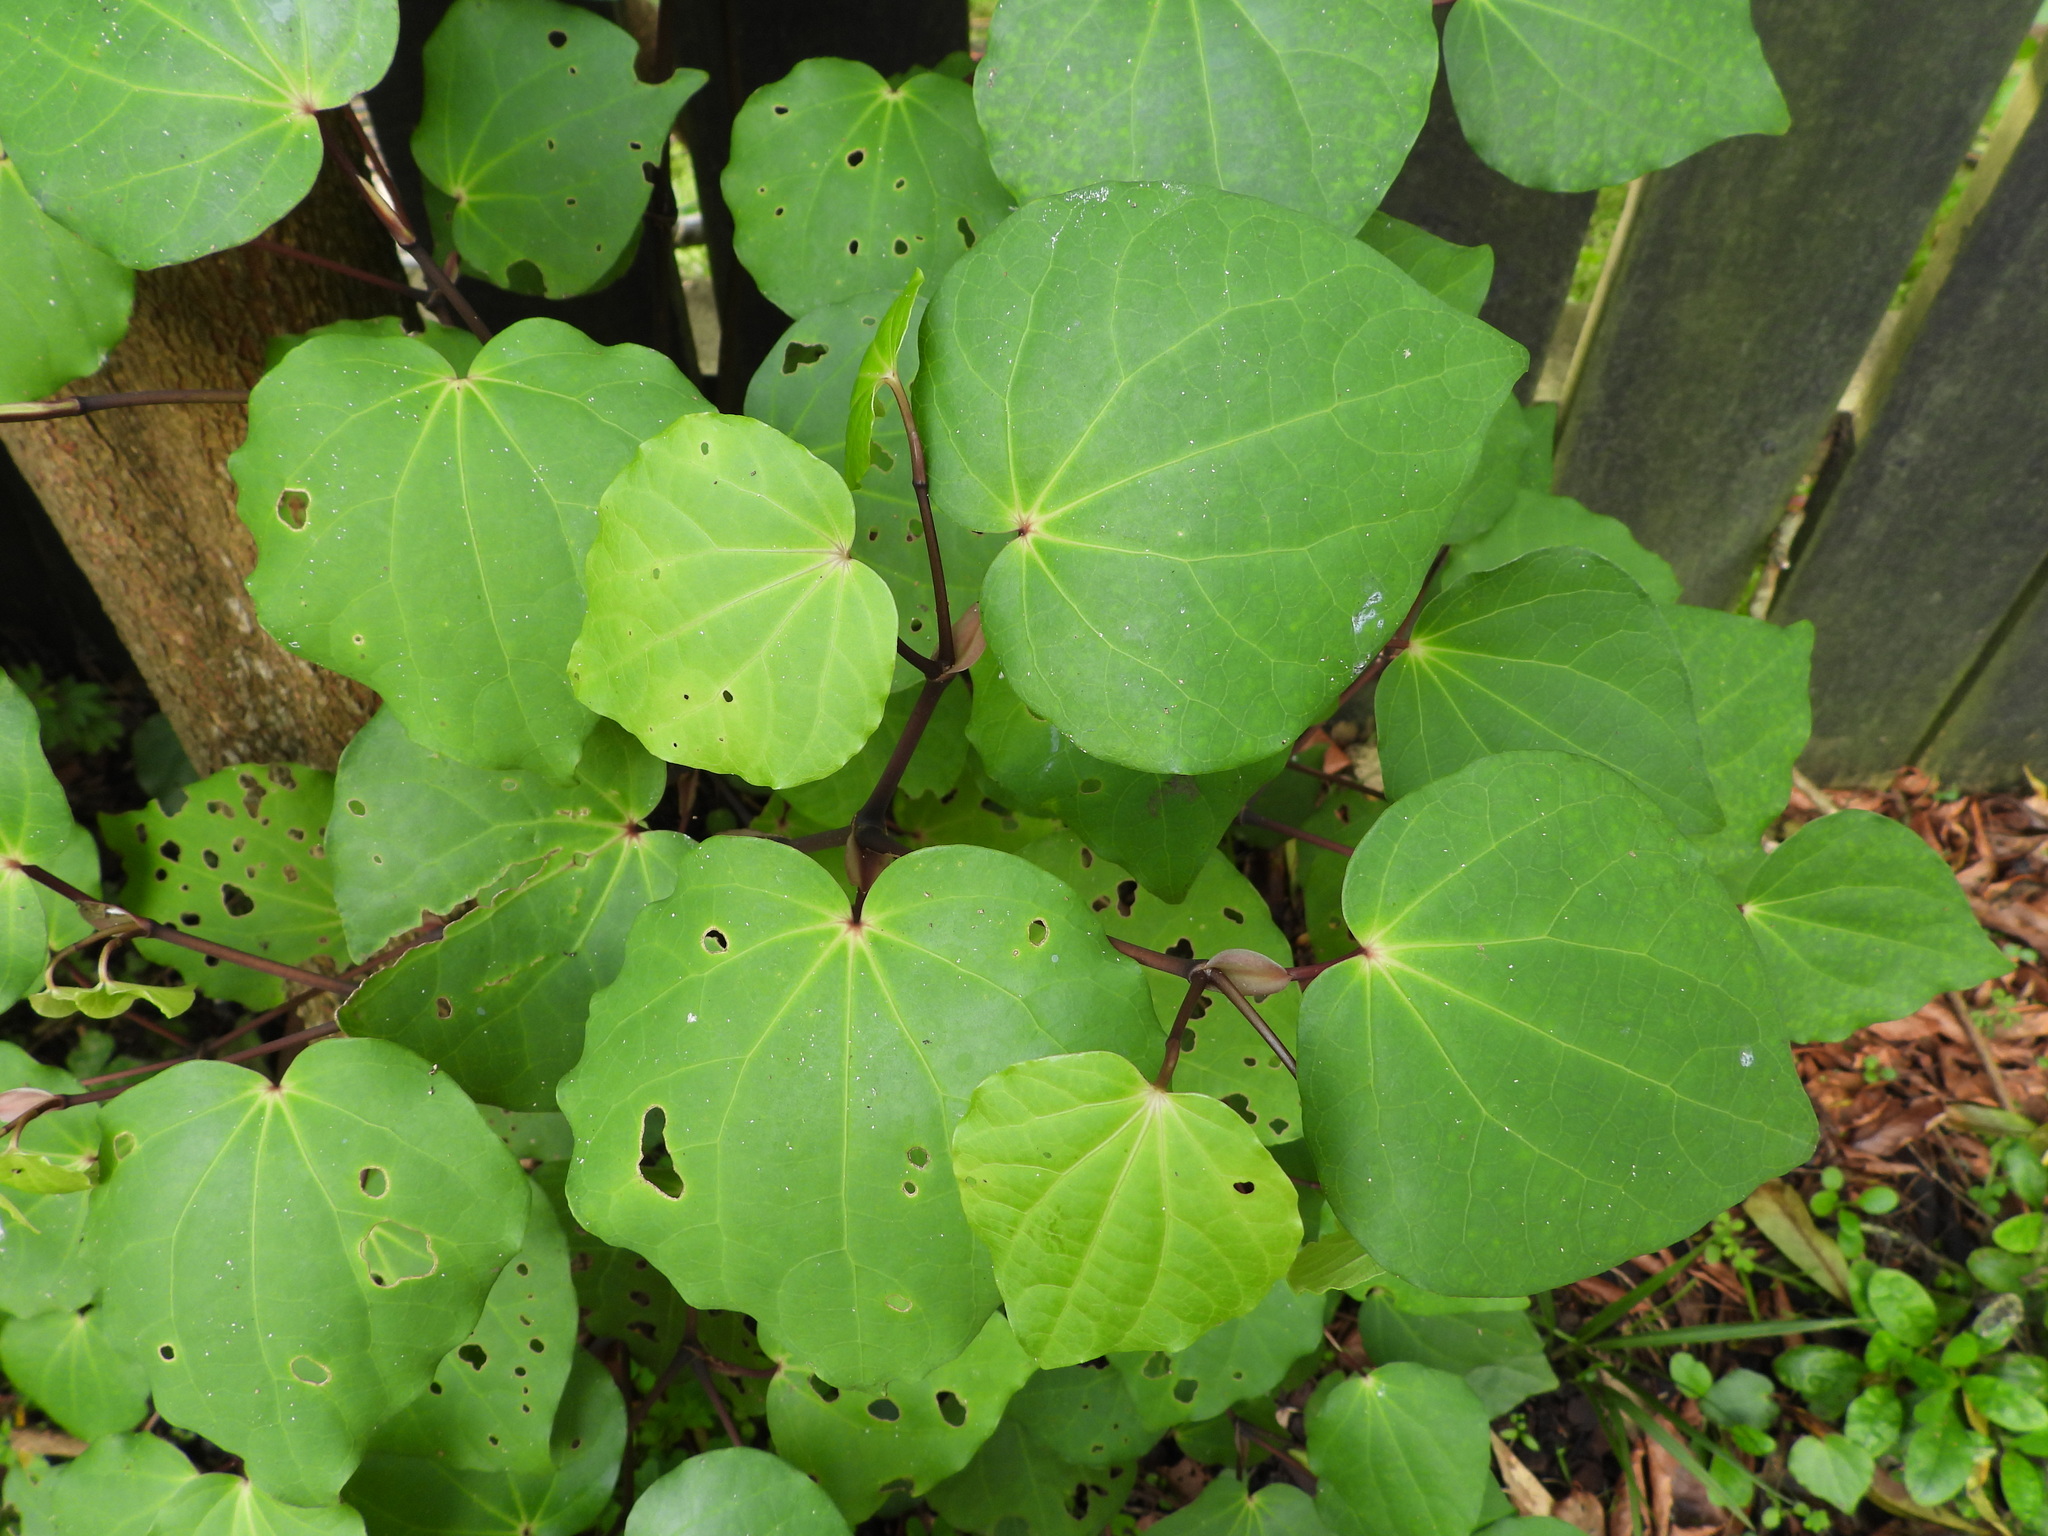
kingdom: Plantae
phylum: Tracheophyta
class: Magnoliopsida
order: Piperales
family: Piperaceae
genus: Macropiper
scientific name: Macropiper excelsum
